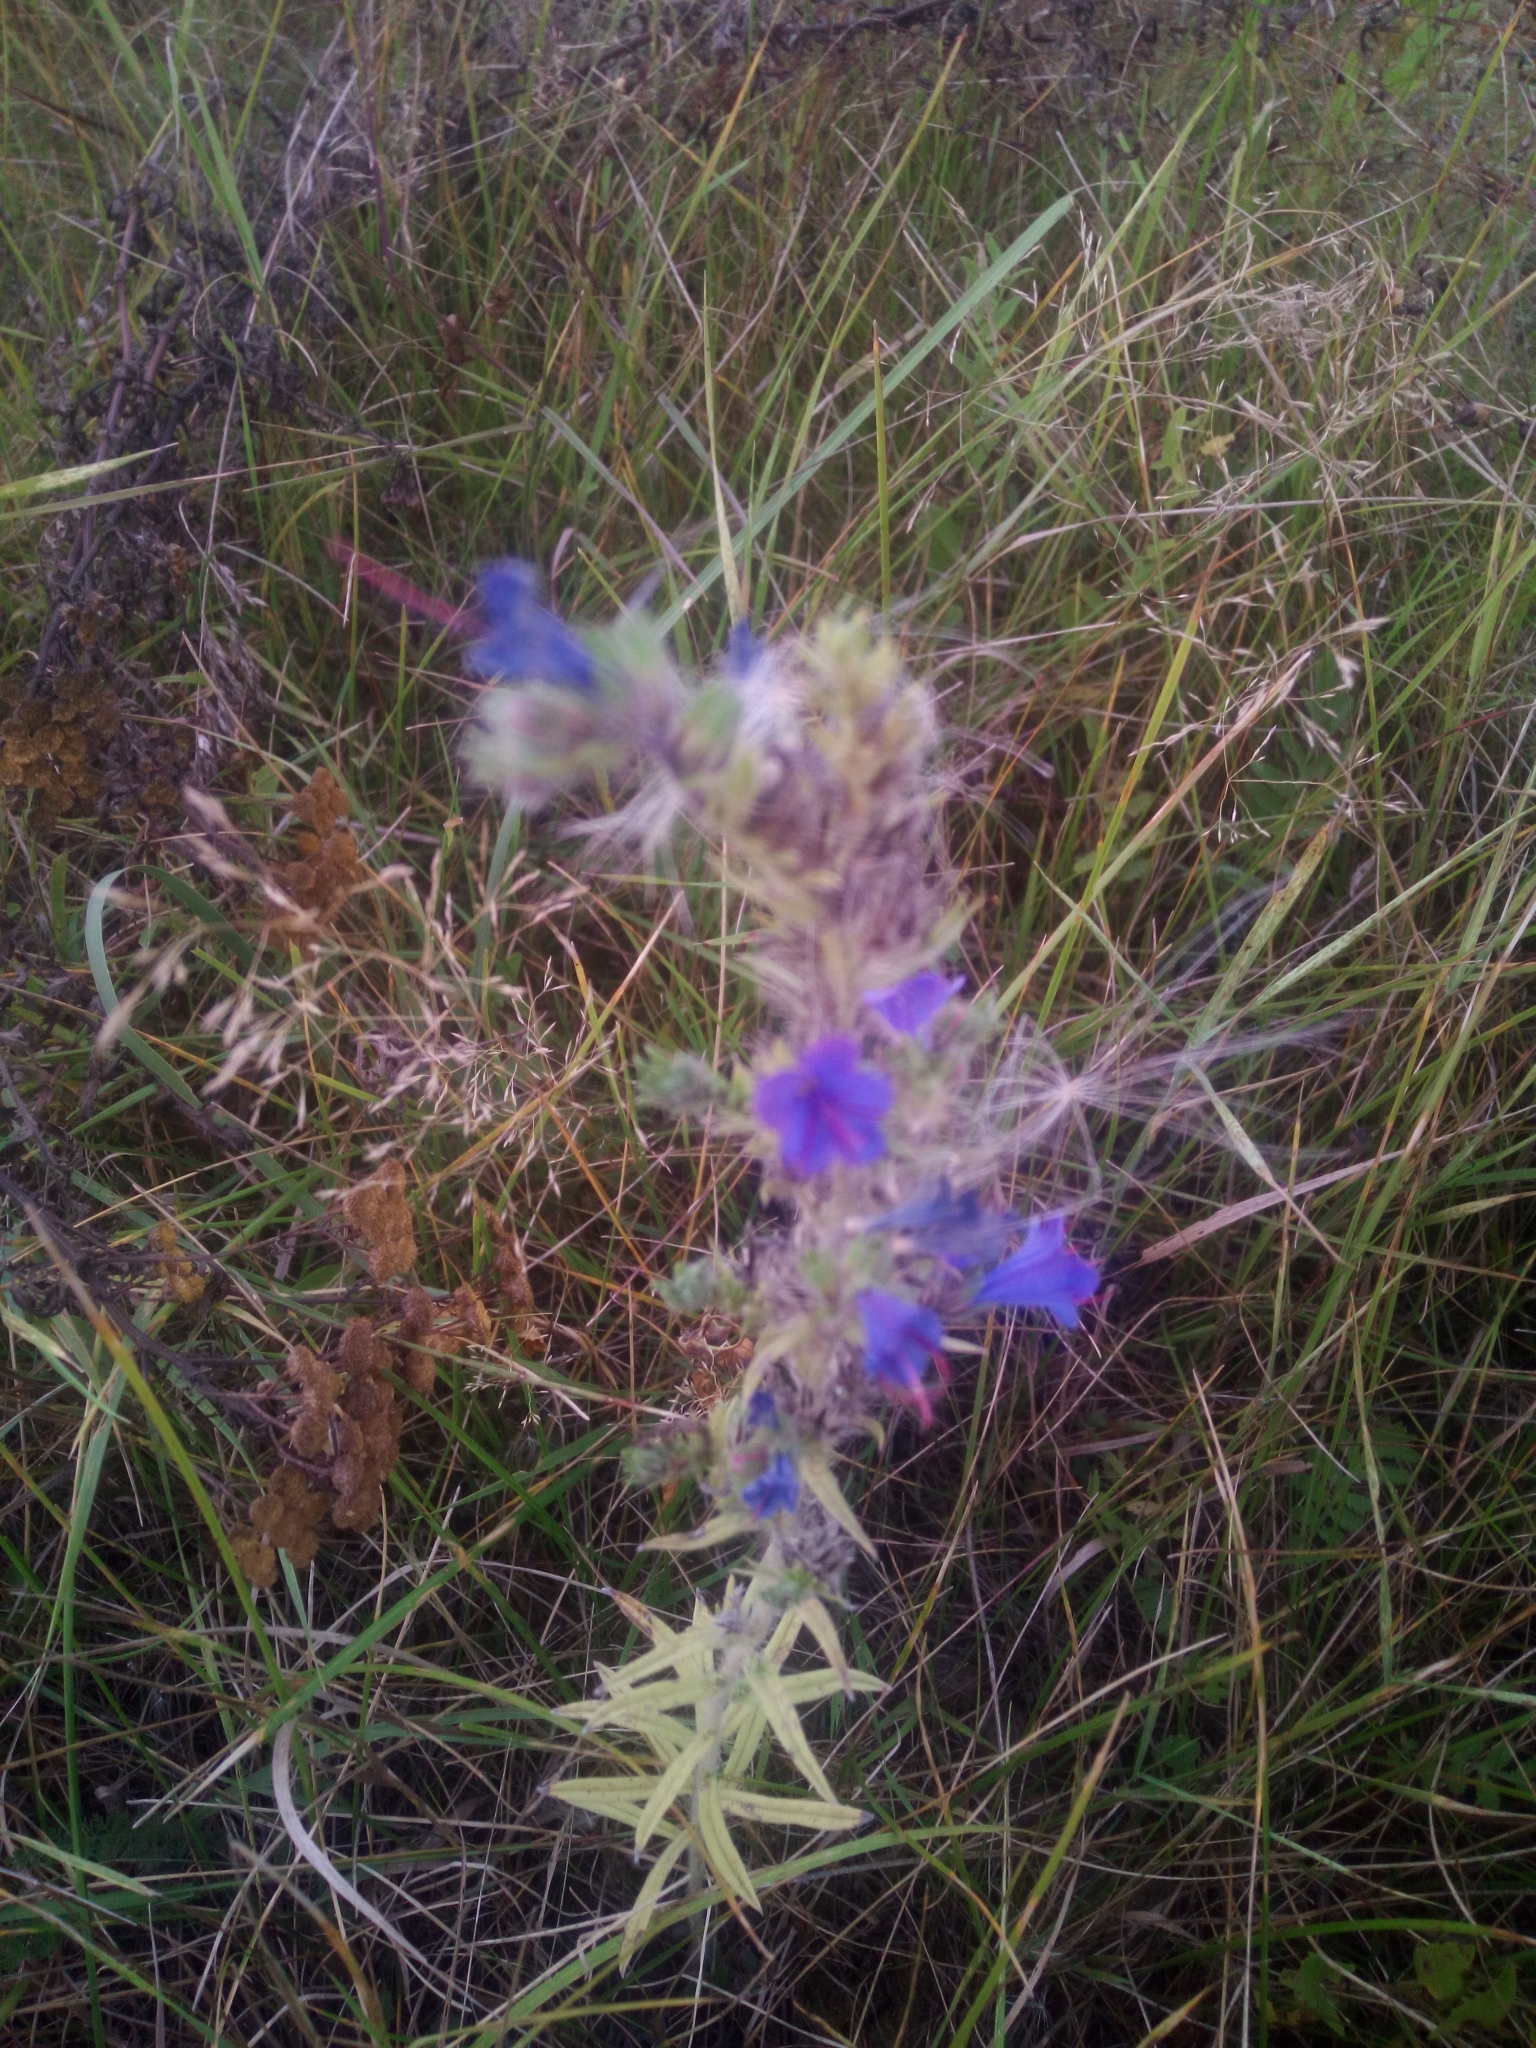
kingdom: Plantae
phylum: Tracheophyta
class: Magnoliopsida
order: Boraginales
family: Boraginaceae
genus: Echium
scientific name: Echium vulgare
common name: Common viper's bugloss
